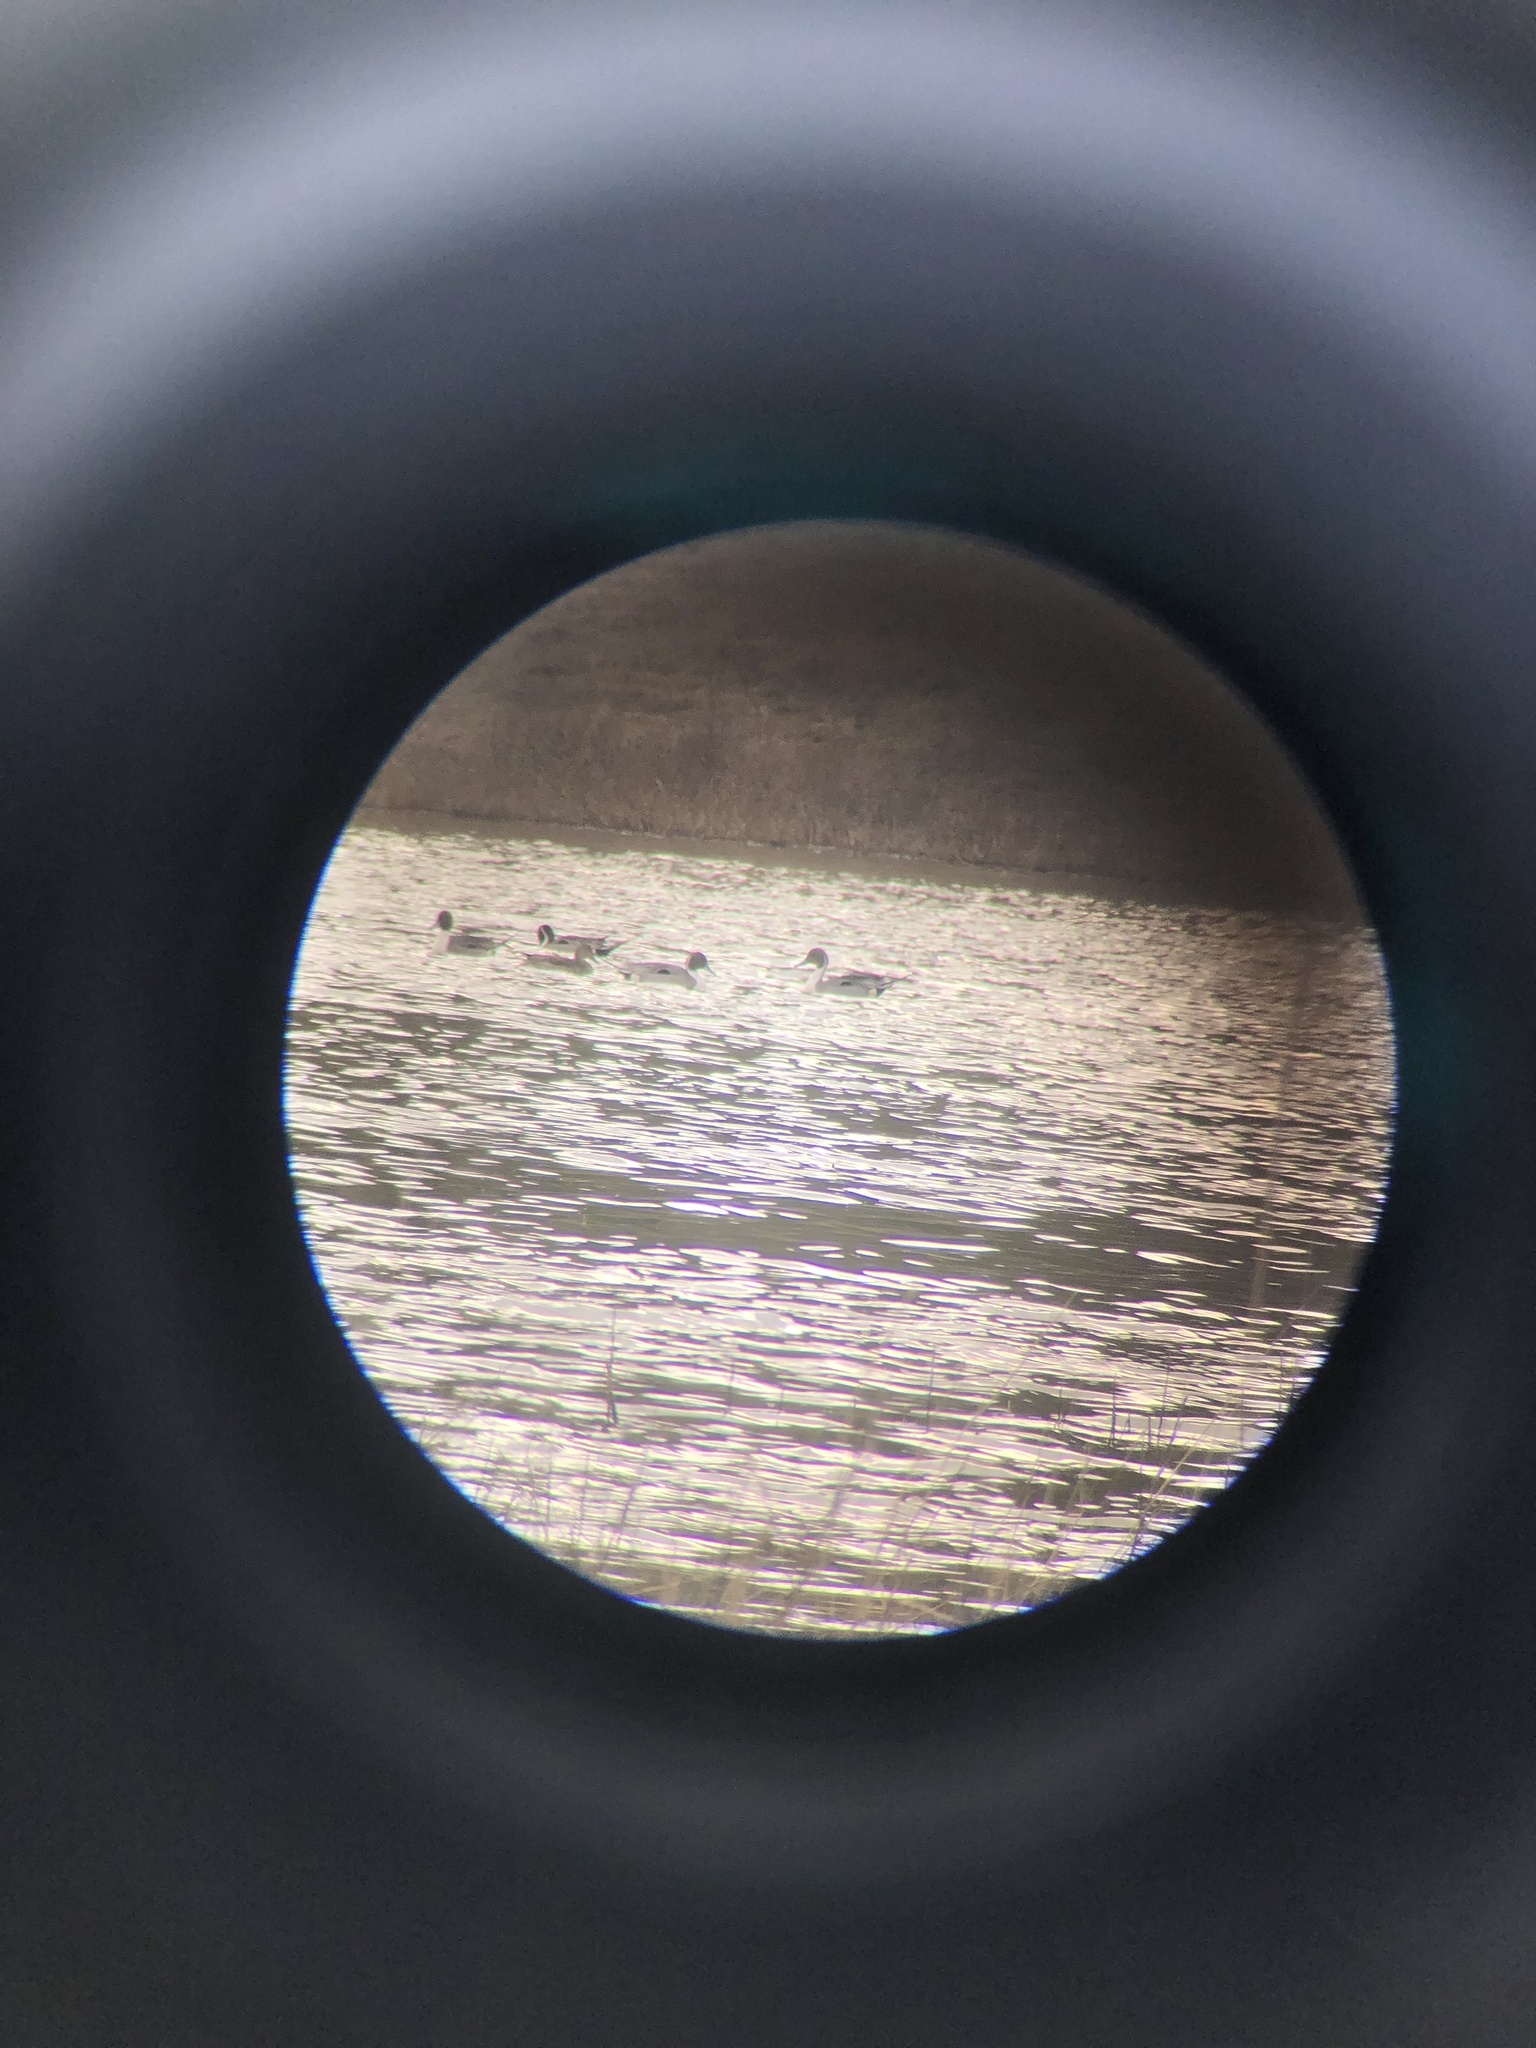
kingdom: Animalia
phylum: Chordata
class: Aves
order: Anseriformes
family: Anatidae
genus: Anas
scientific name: Anas acuta
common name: Northern pintail
